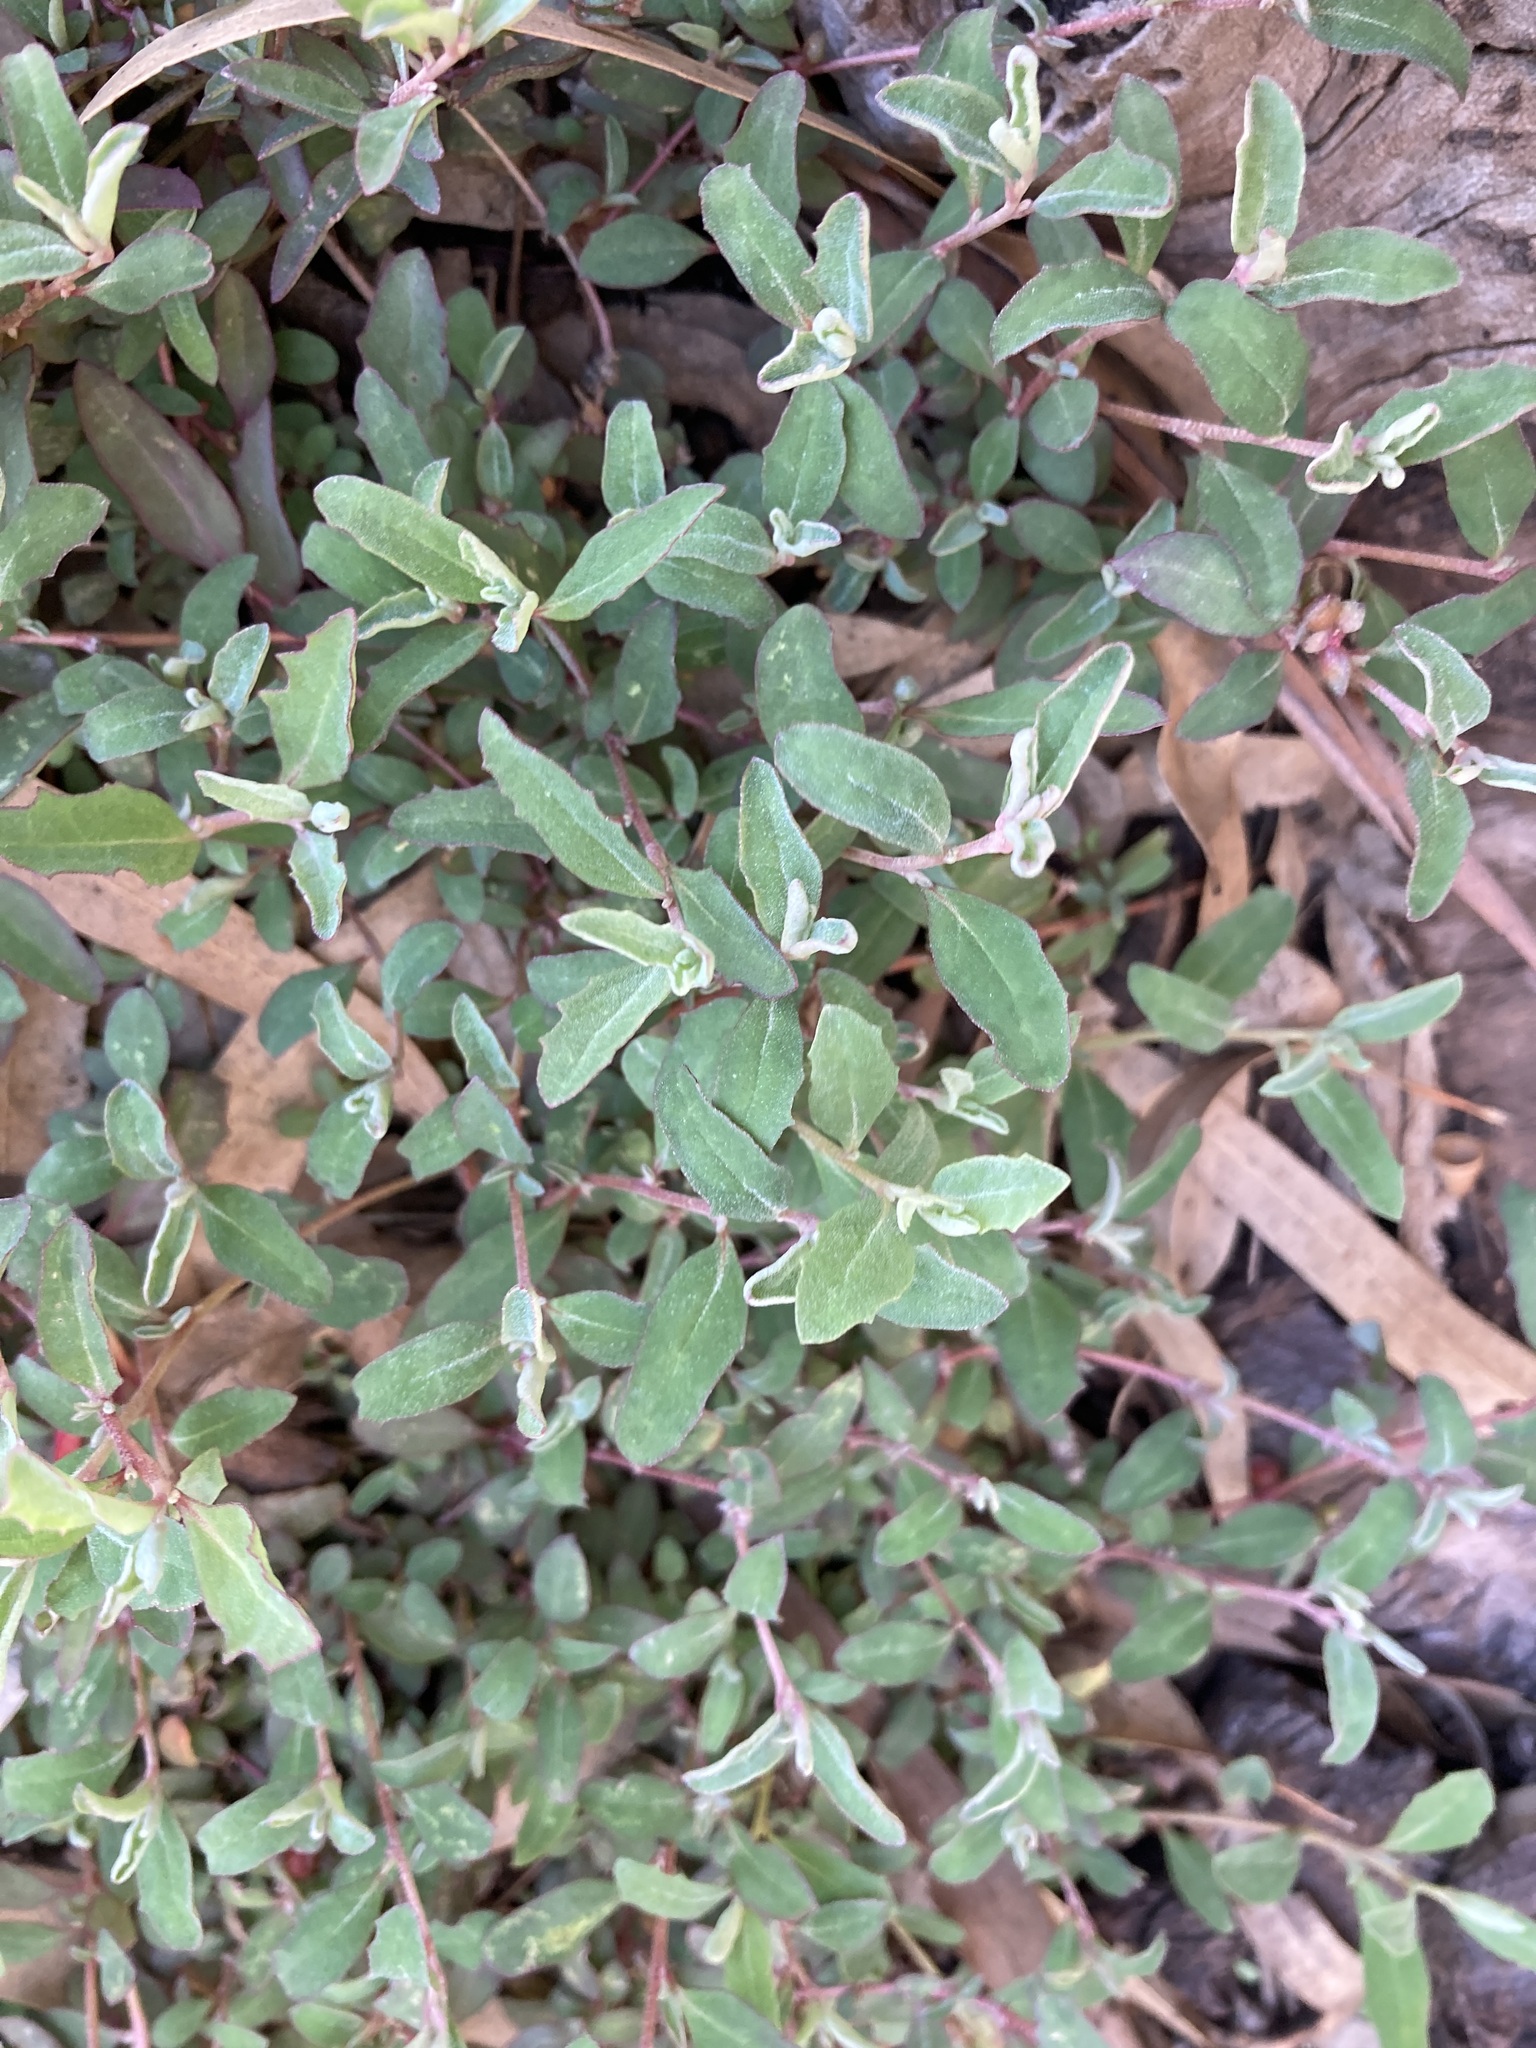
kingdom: Plantae
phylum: Tracheophyta
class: Magnoliopsida
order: Caryophyllales
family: Amaranthaceae
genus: Atriplex
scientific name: Atriplex semibaccata
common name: Australian saltbush
